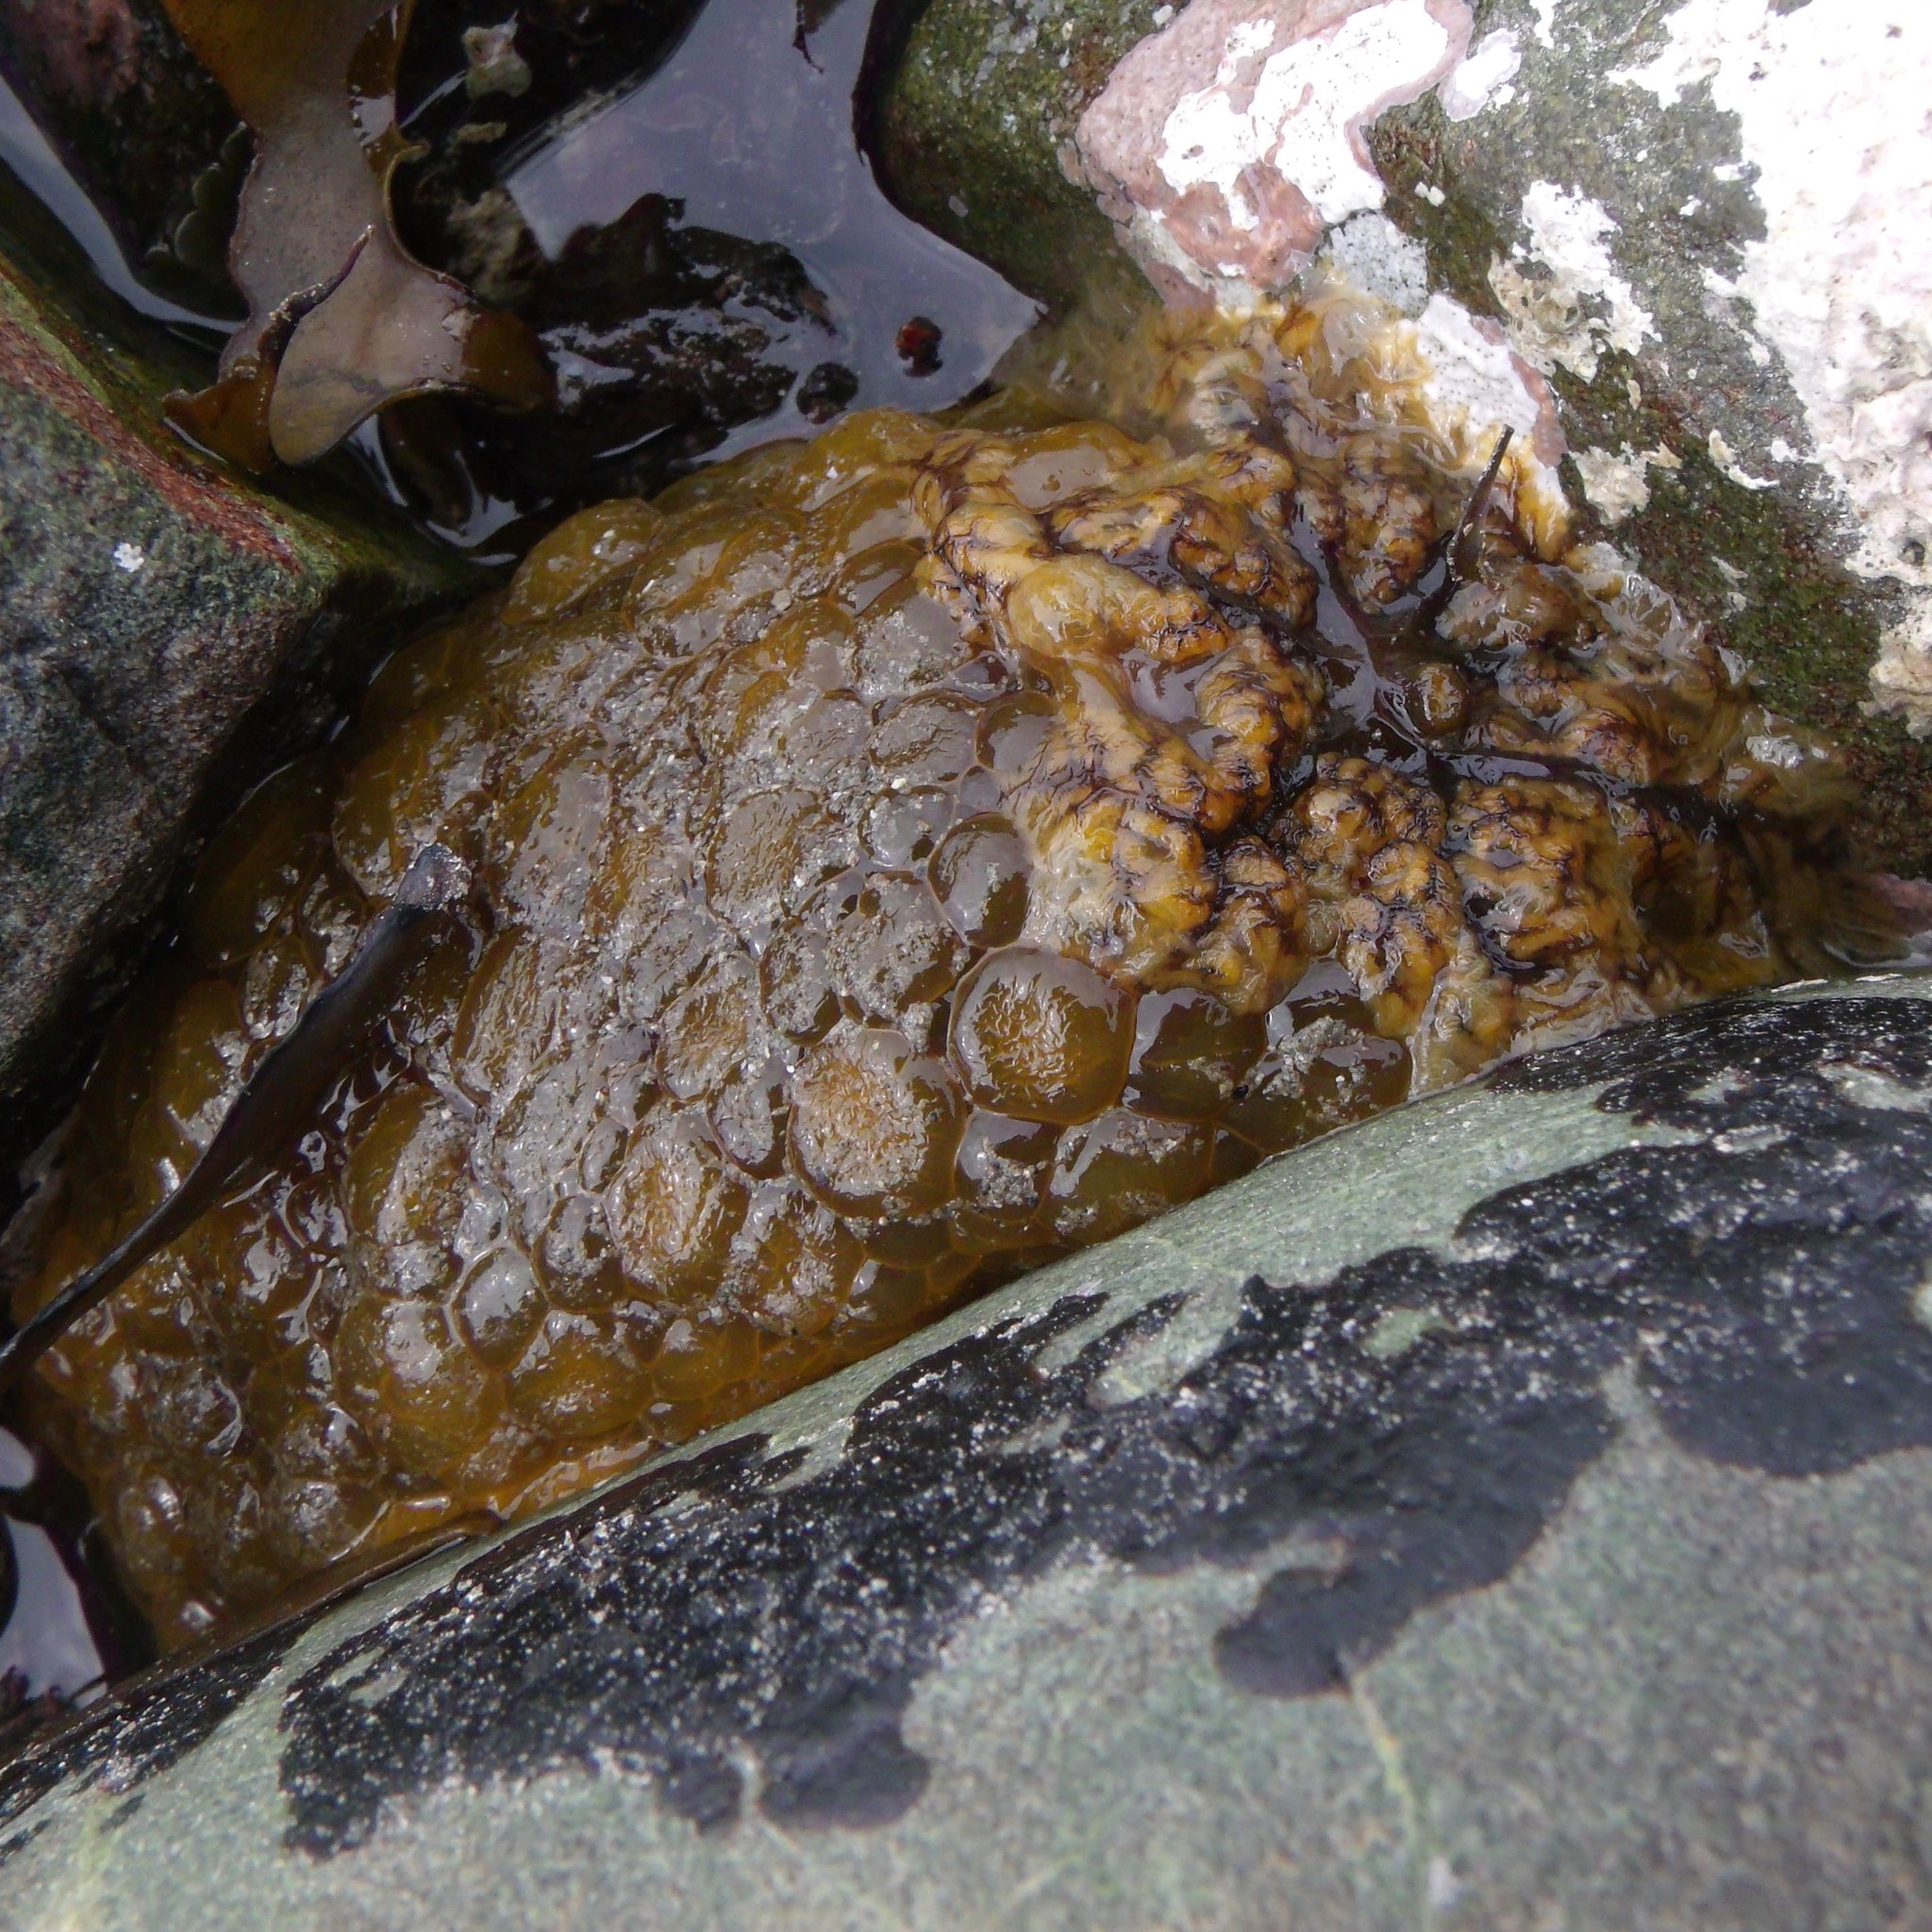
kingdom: Animalia
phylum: Mollusca
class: Gastropoda
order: Nudibranchia
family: Dorididae
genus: Doris
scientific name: Doris wellingtonensis
